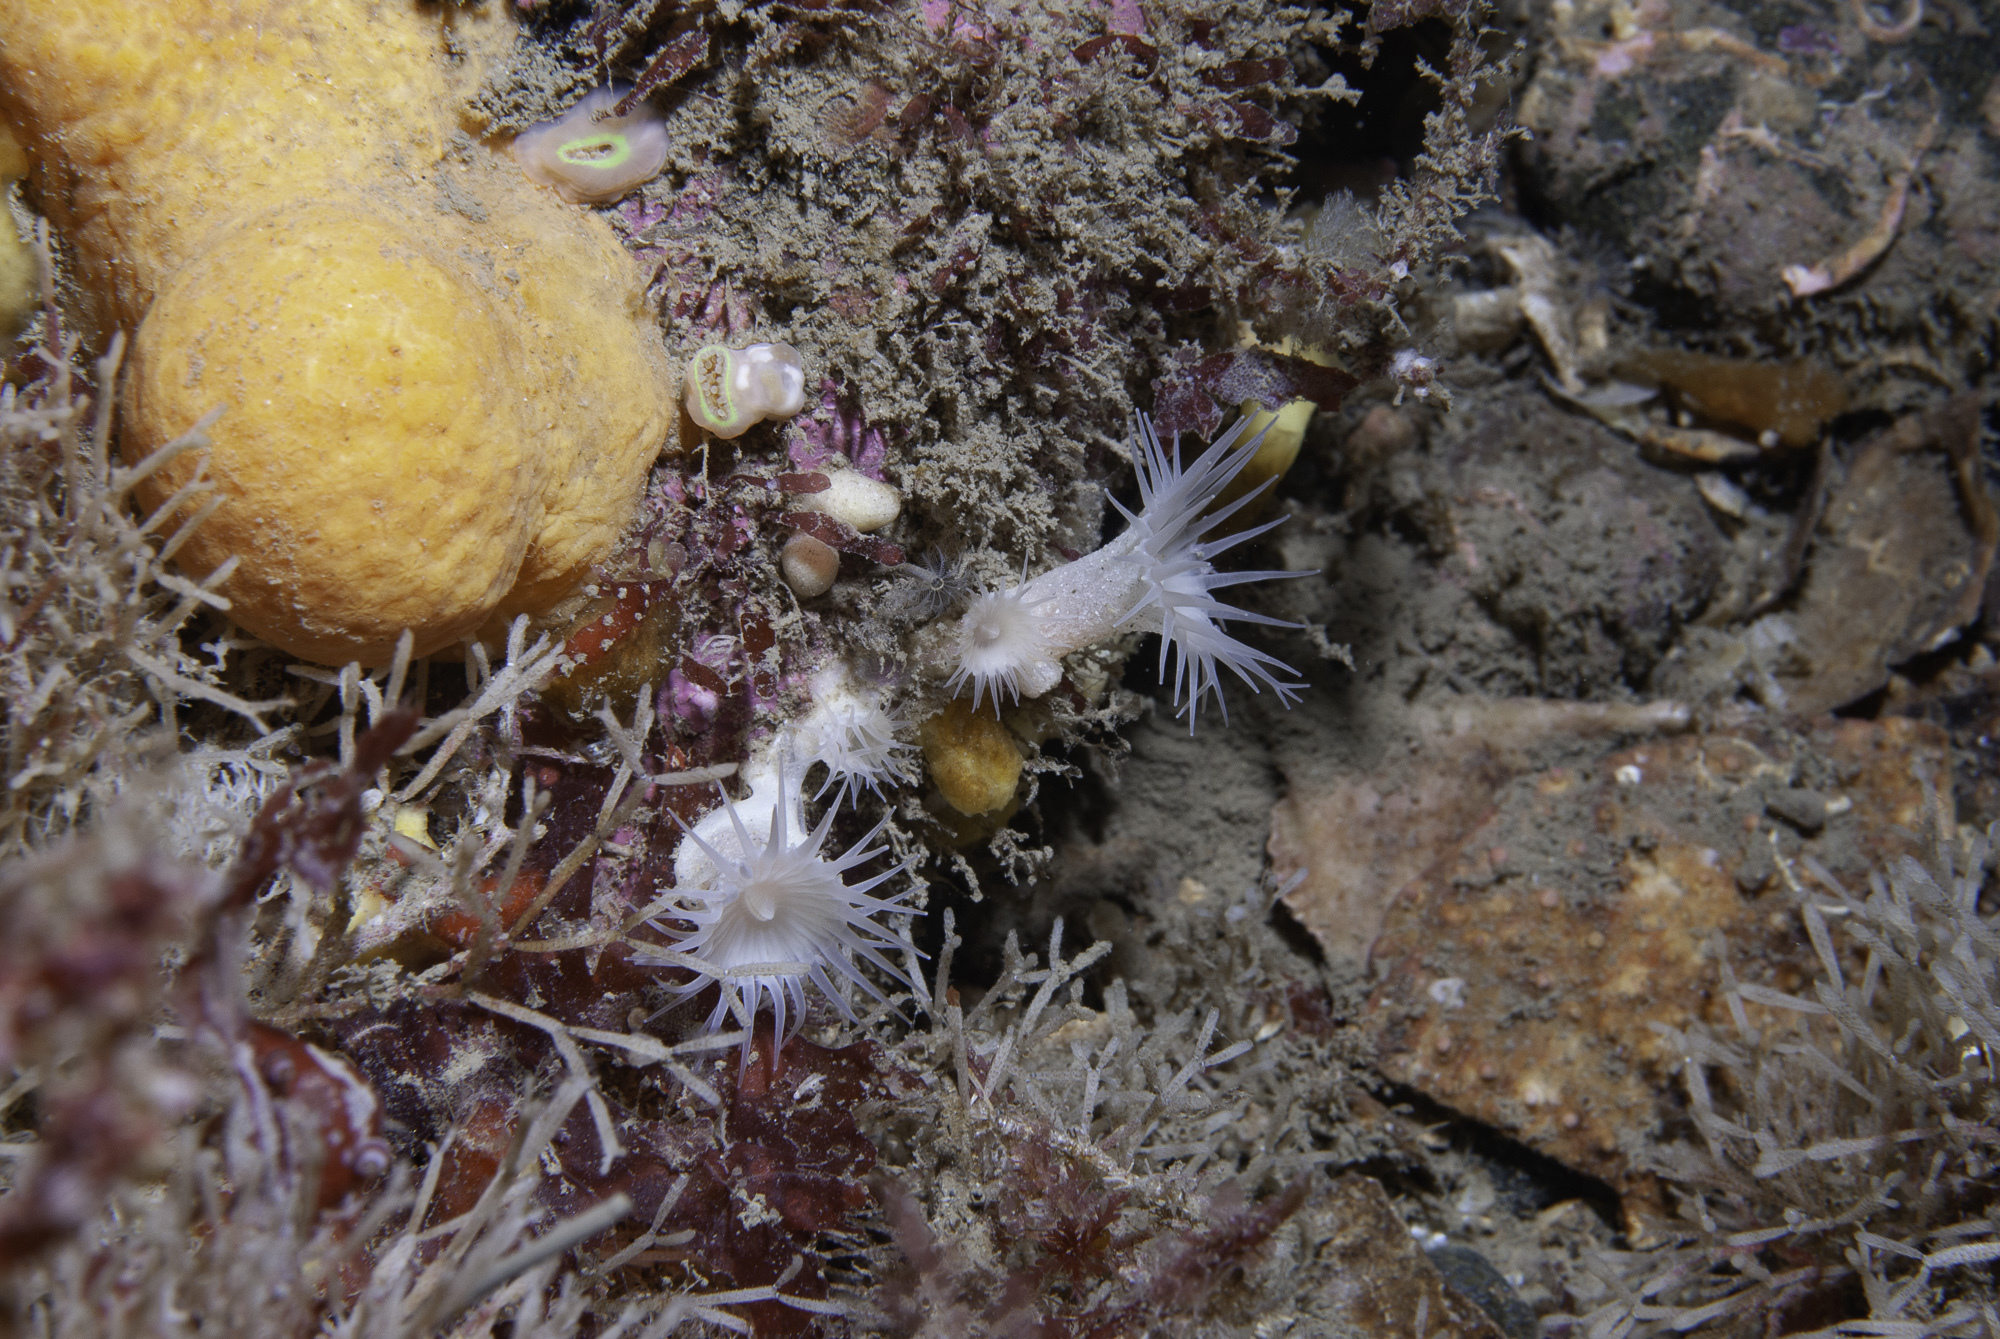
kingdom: Animalia
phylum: Cnidaria
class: Anthozoa
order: Zoantharia
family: Parazoanthidae
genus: Parazoanthus
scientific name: Parazoanthus anguicomus
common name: White cluster anemone
